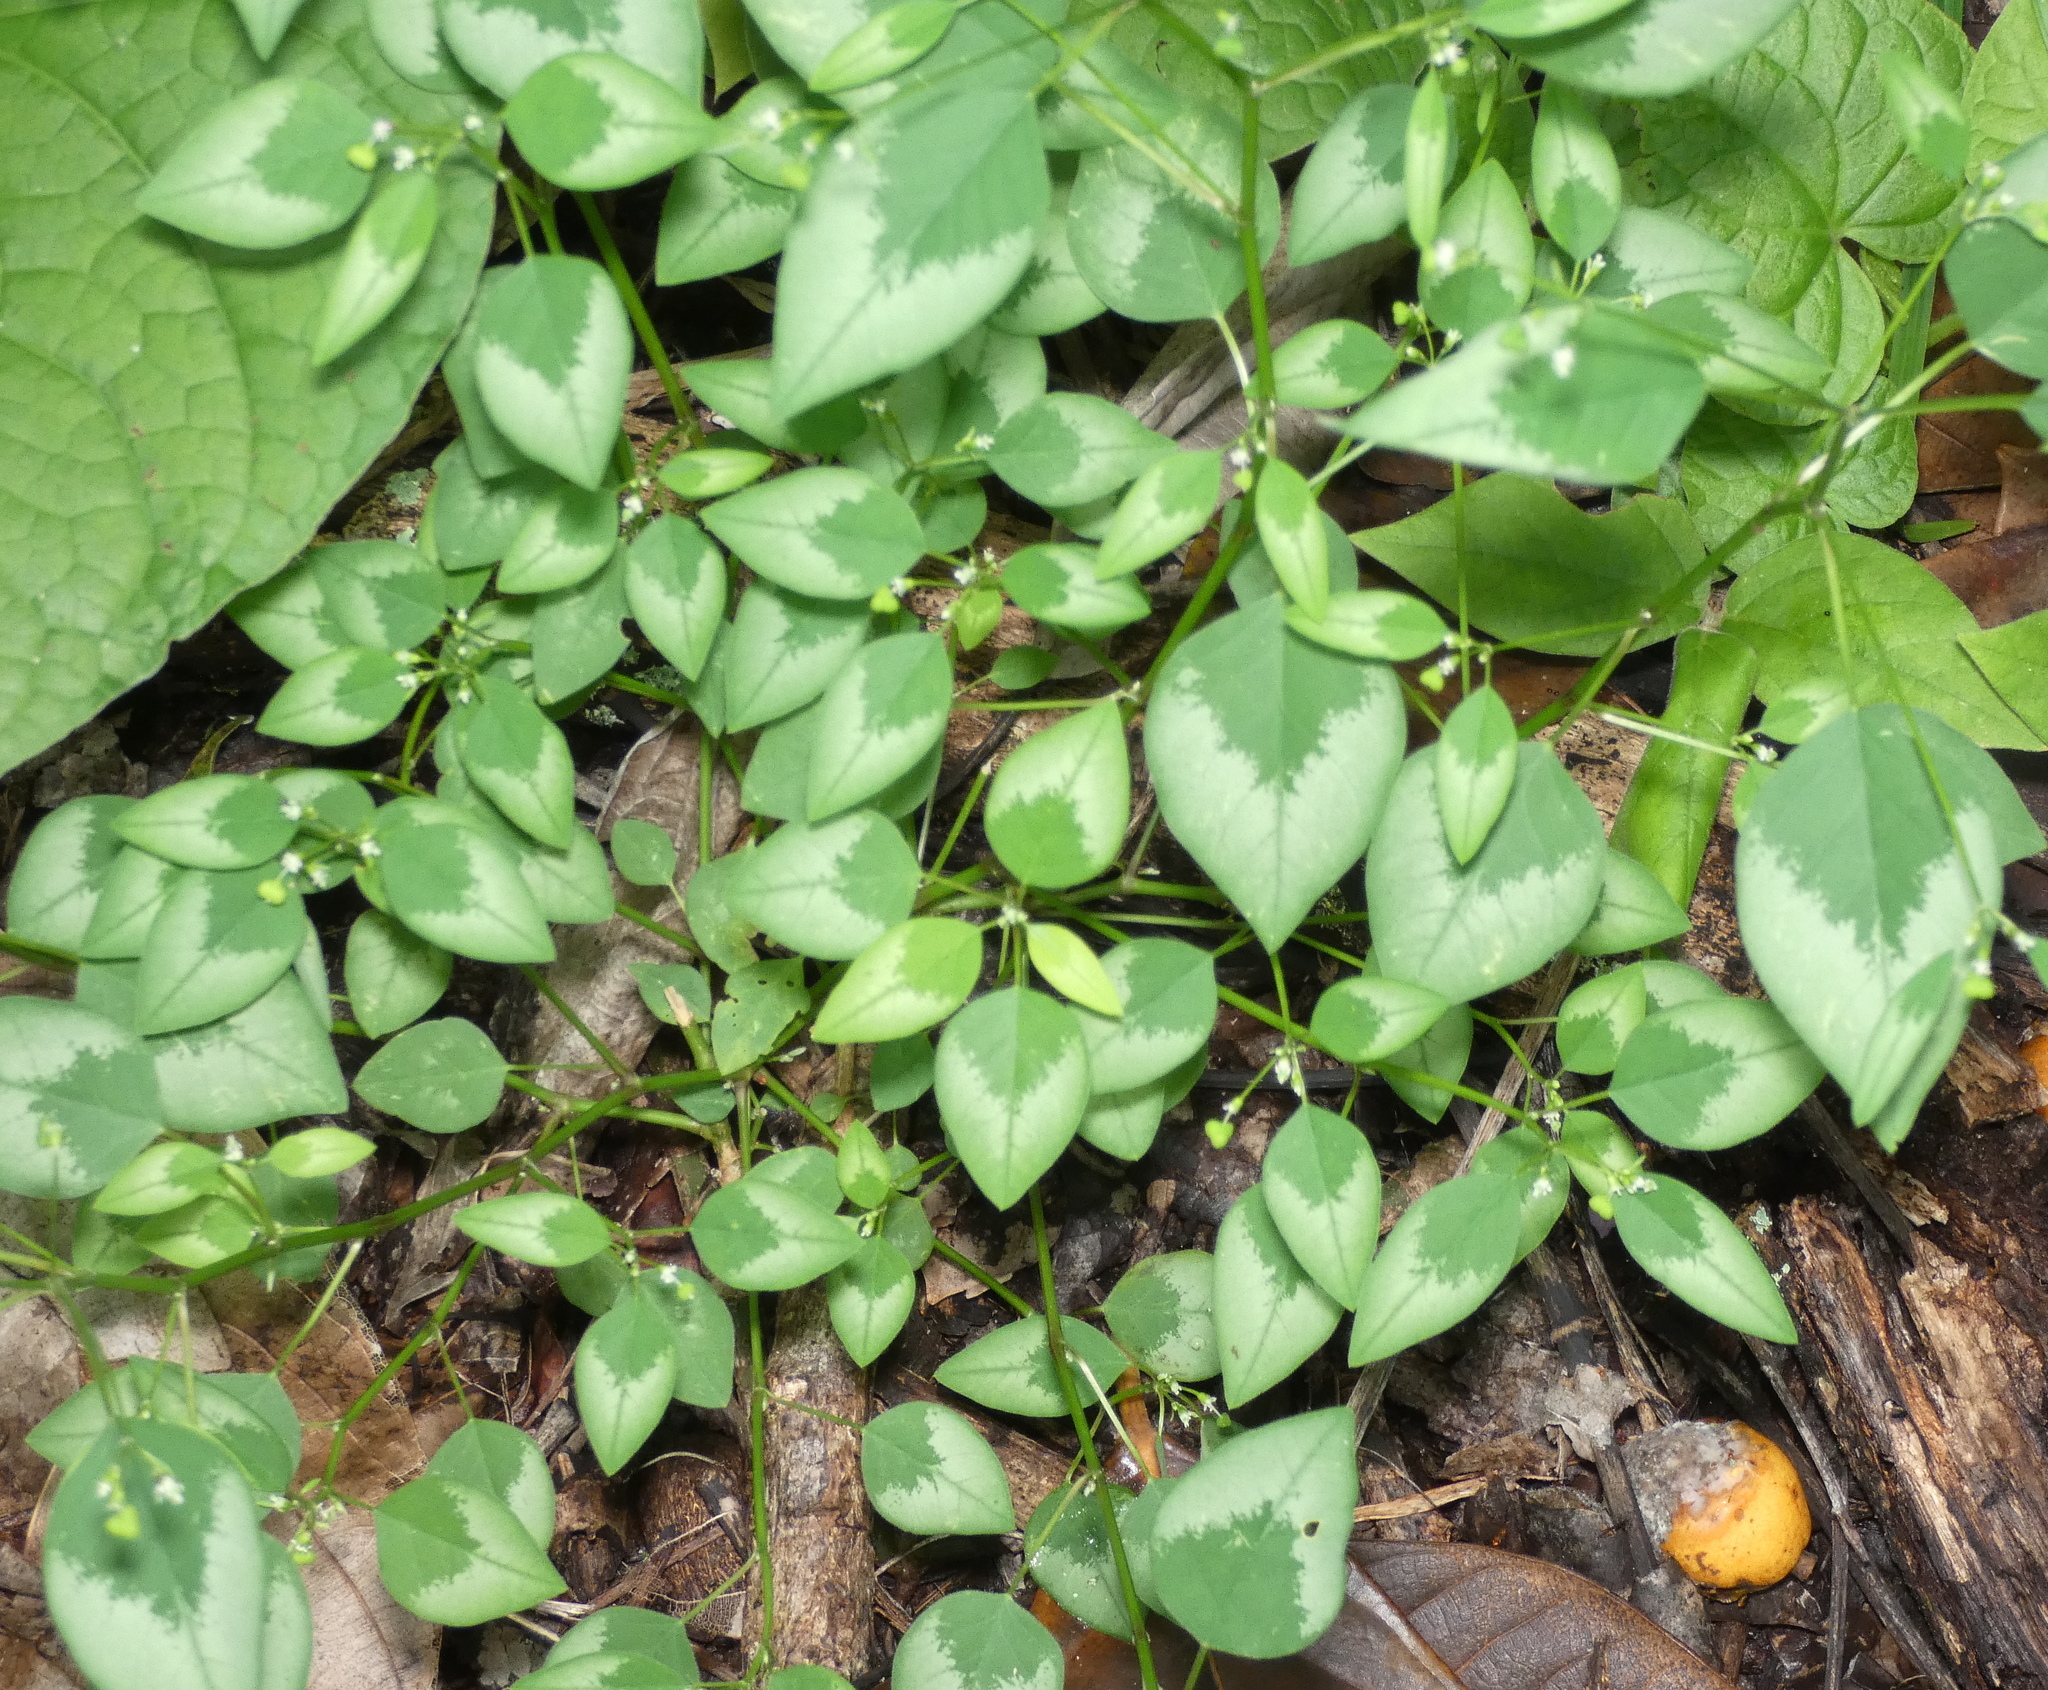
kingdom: Plantae
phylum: Tracheophyta
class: Magnoliopsida
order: Malpighiales
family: Euphorbiaceae
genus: Euphorbia
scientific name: Euphorbia graminea
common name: Grassleaf spurge
